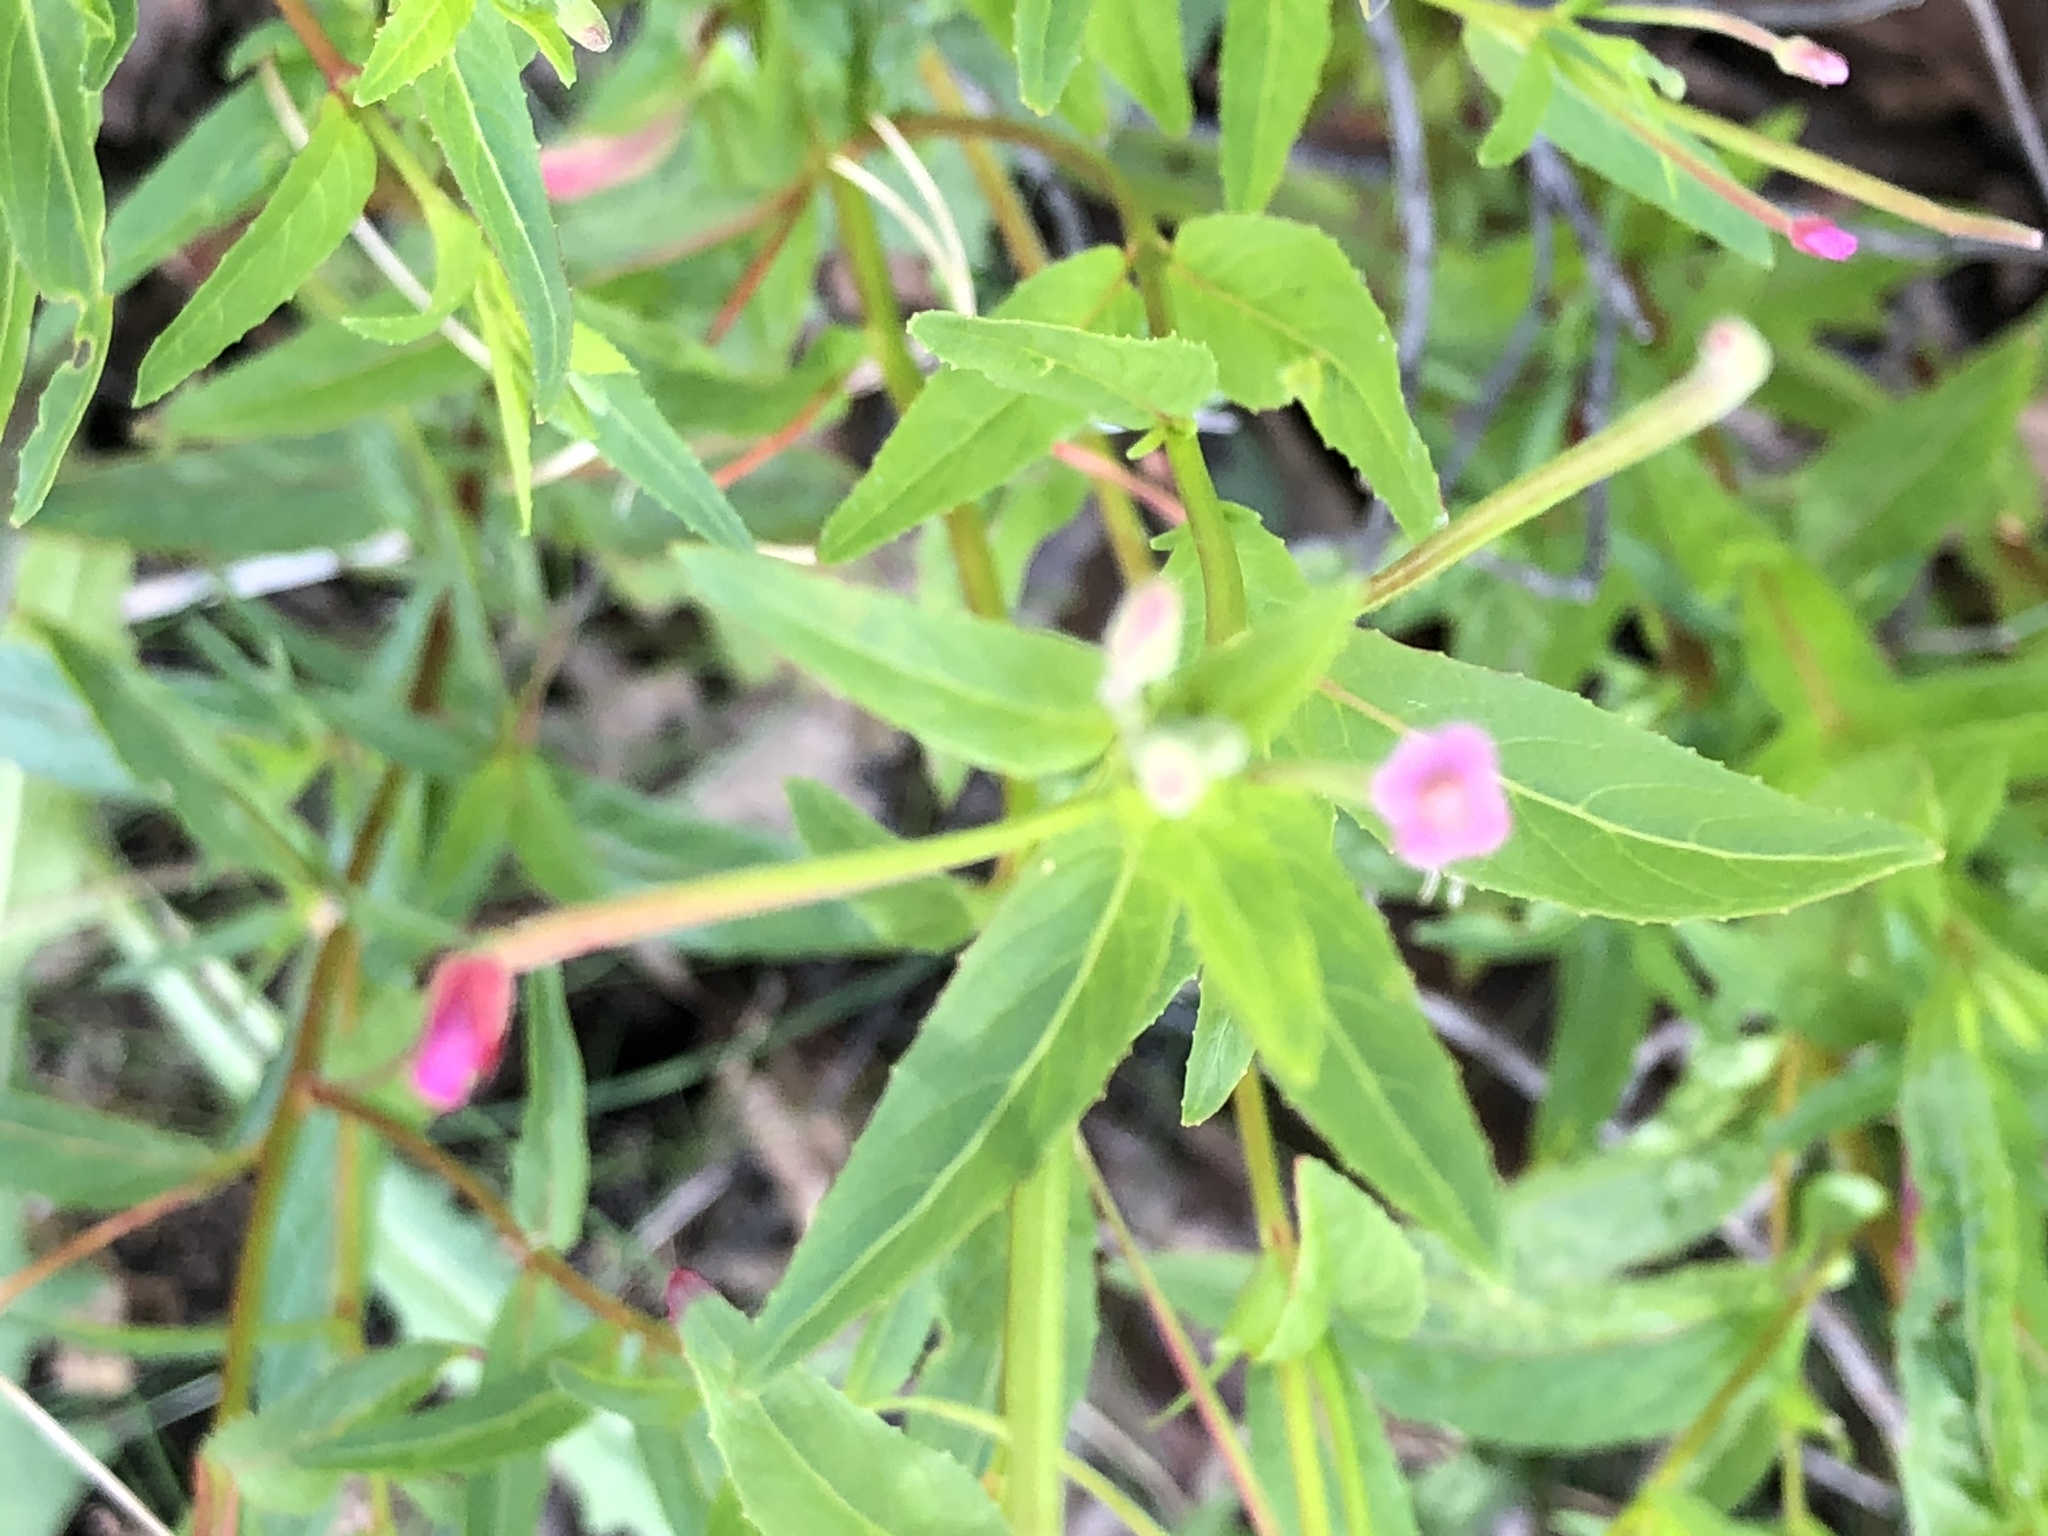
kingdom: Plantae
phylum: Tracheophyta
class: Magnoliopsida
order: Myrtales
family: Onagraceae
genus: Epilobium
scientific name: Epilobium ciliatum
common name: American willowherb
